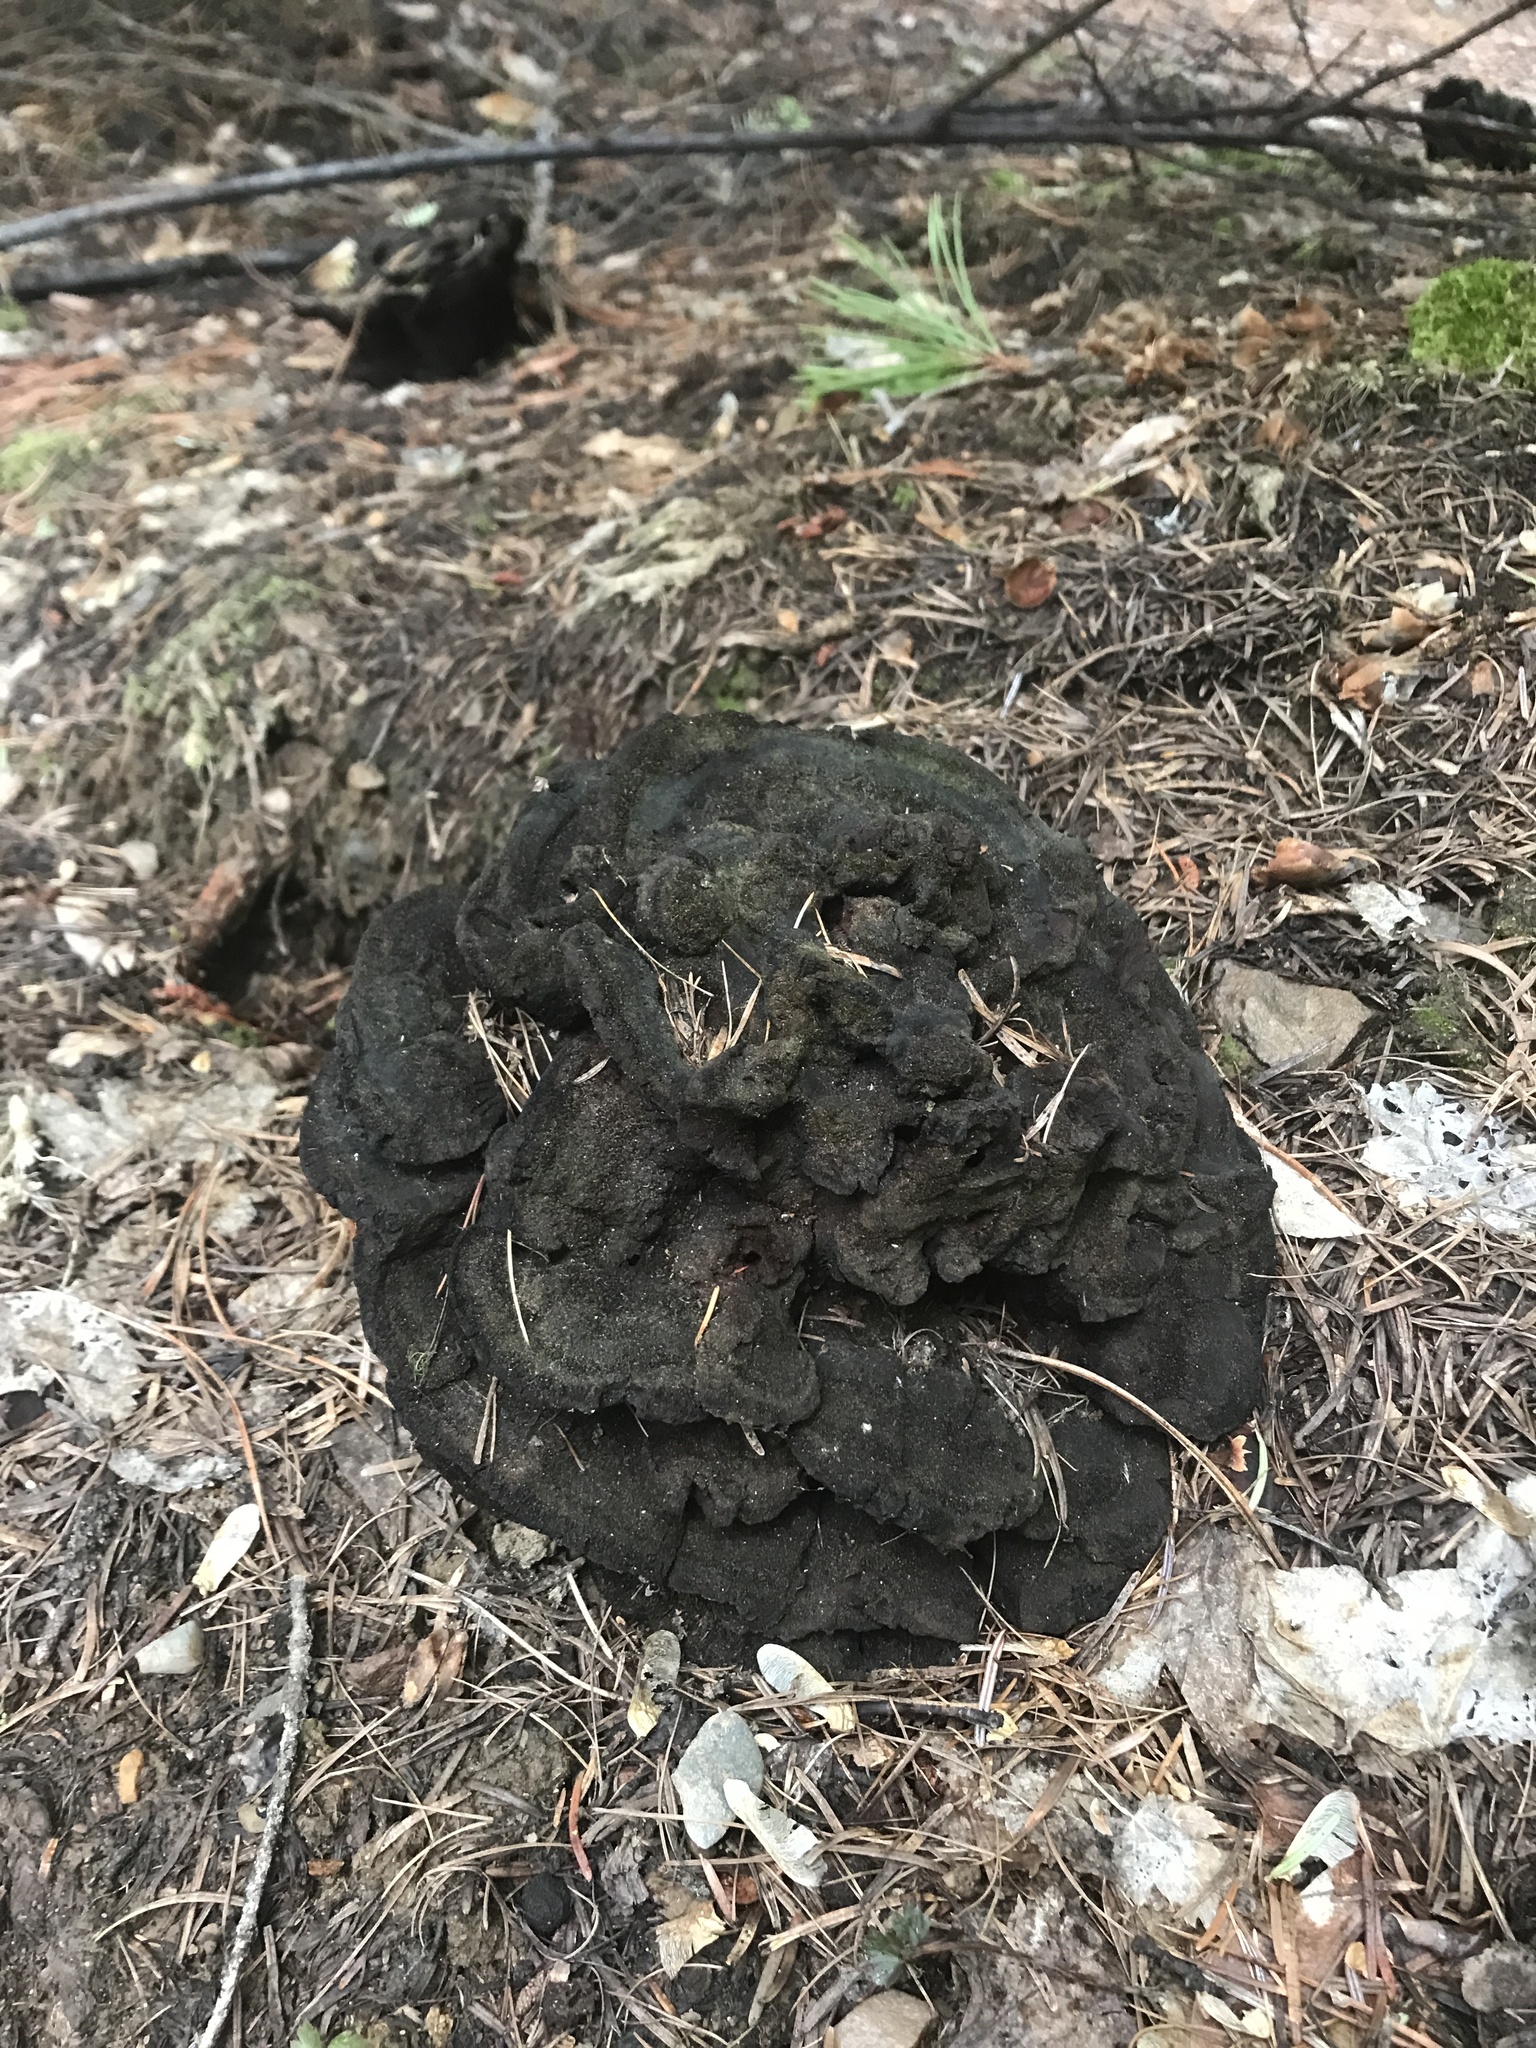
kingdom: Fungi
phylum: Basidiomycota
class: Agaricomycetes
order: Polyporales
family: Laetiporaceae
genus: Phaeolus
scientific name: Phaeolus schweinitzii
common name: Dyer's mazegill
